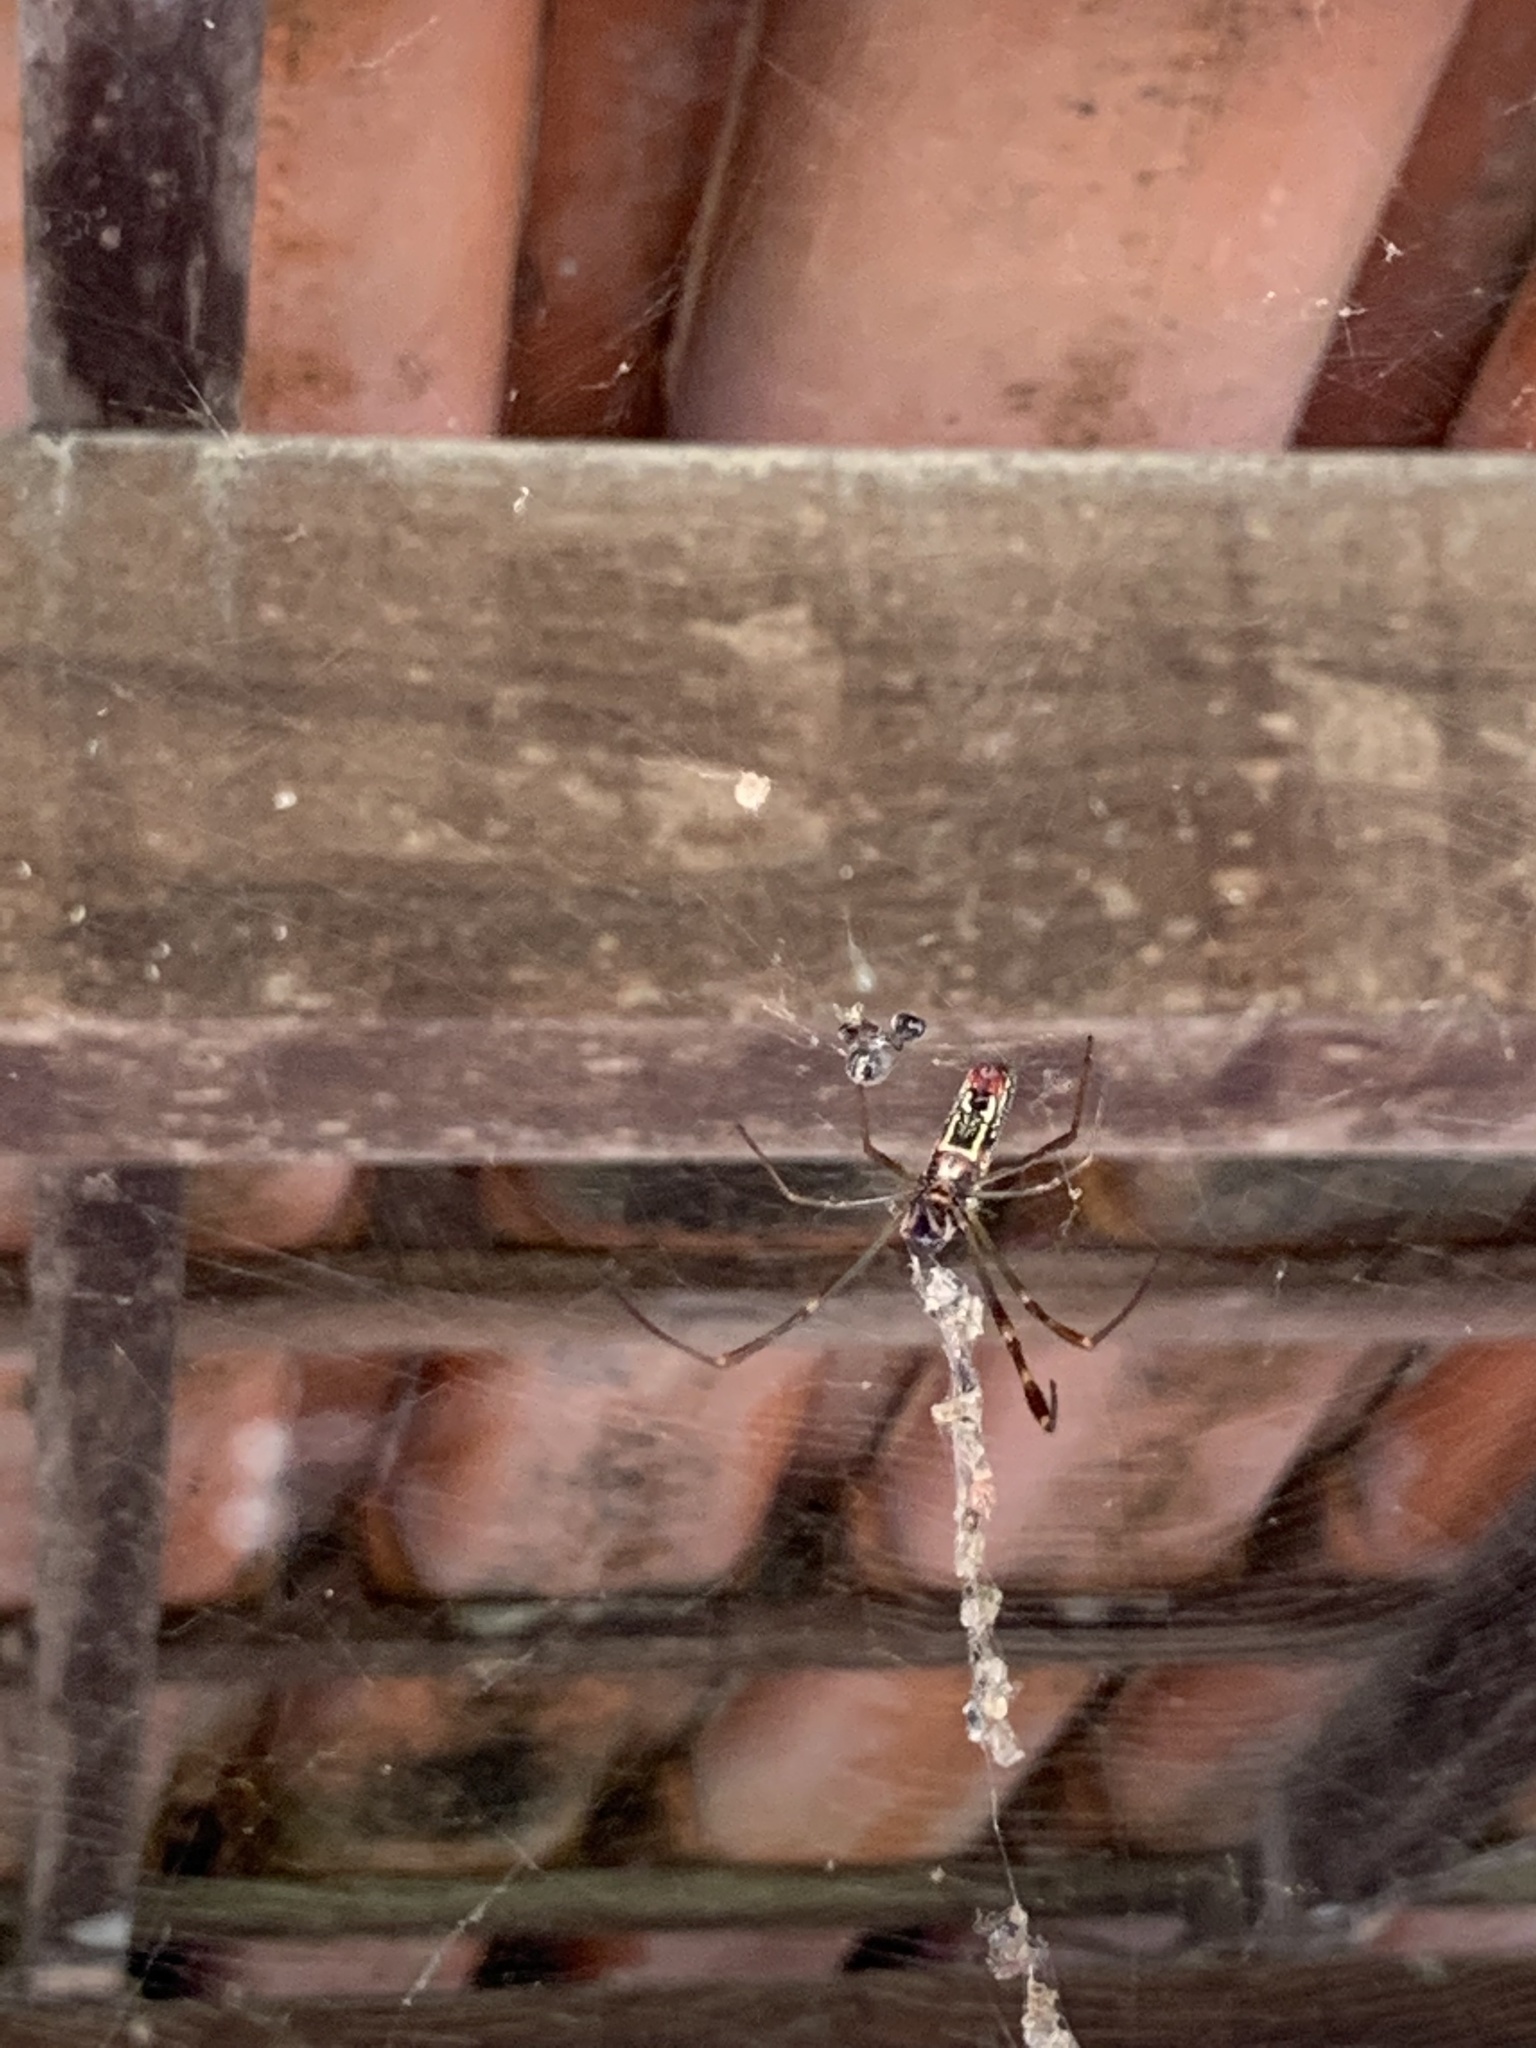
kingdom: Animalia
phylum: Arthropoda
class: Arachnida
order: Araneae
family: Araneidae
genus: Trichonephila
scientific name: Trichonephila clavipes
